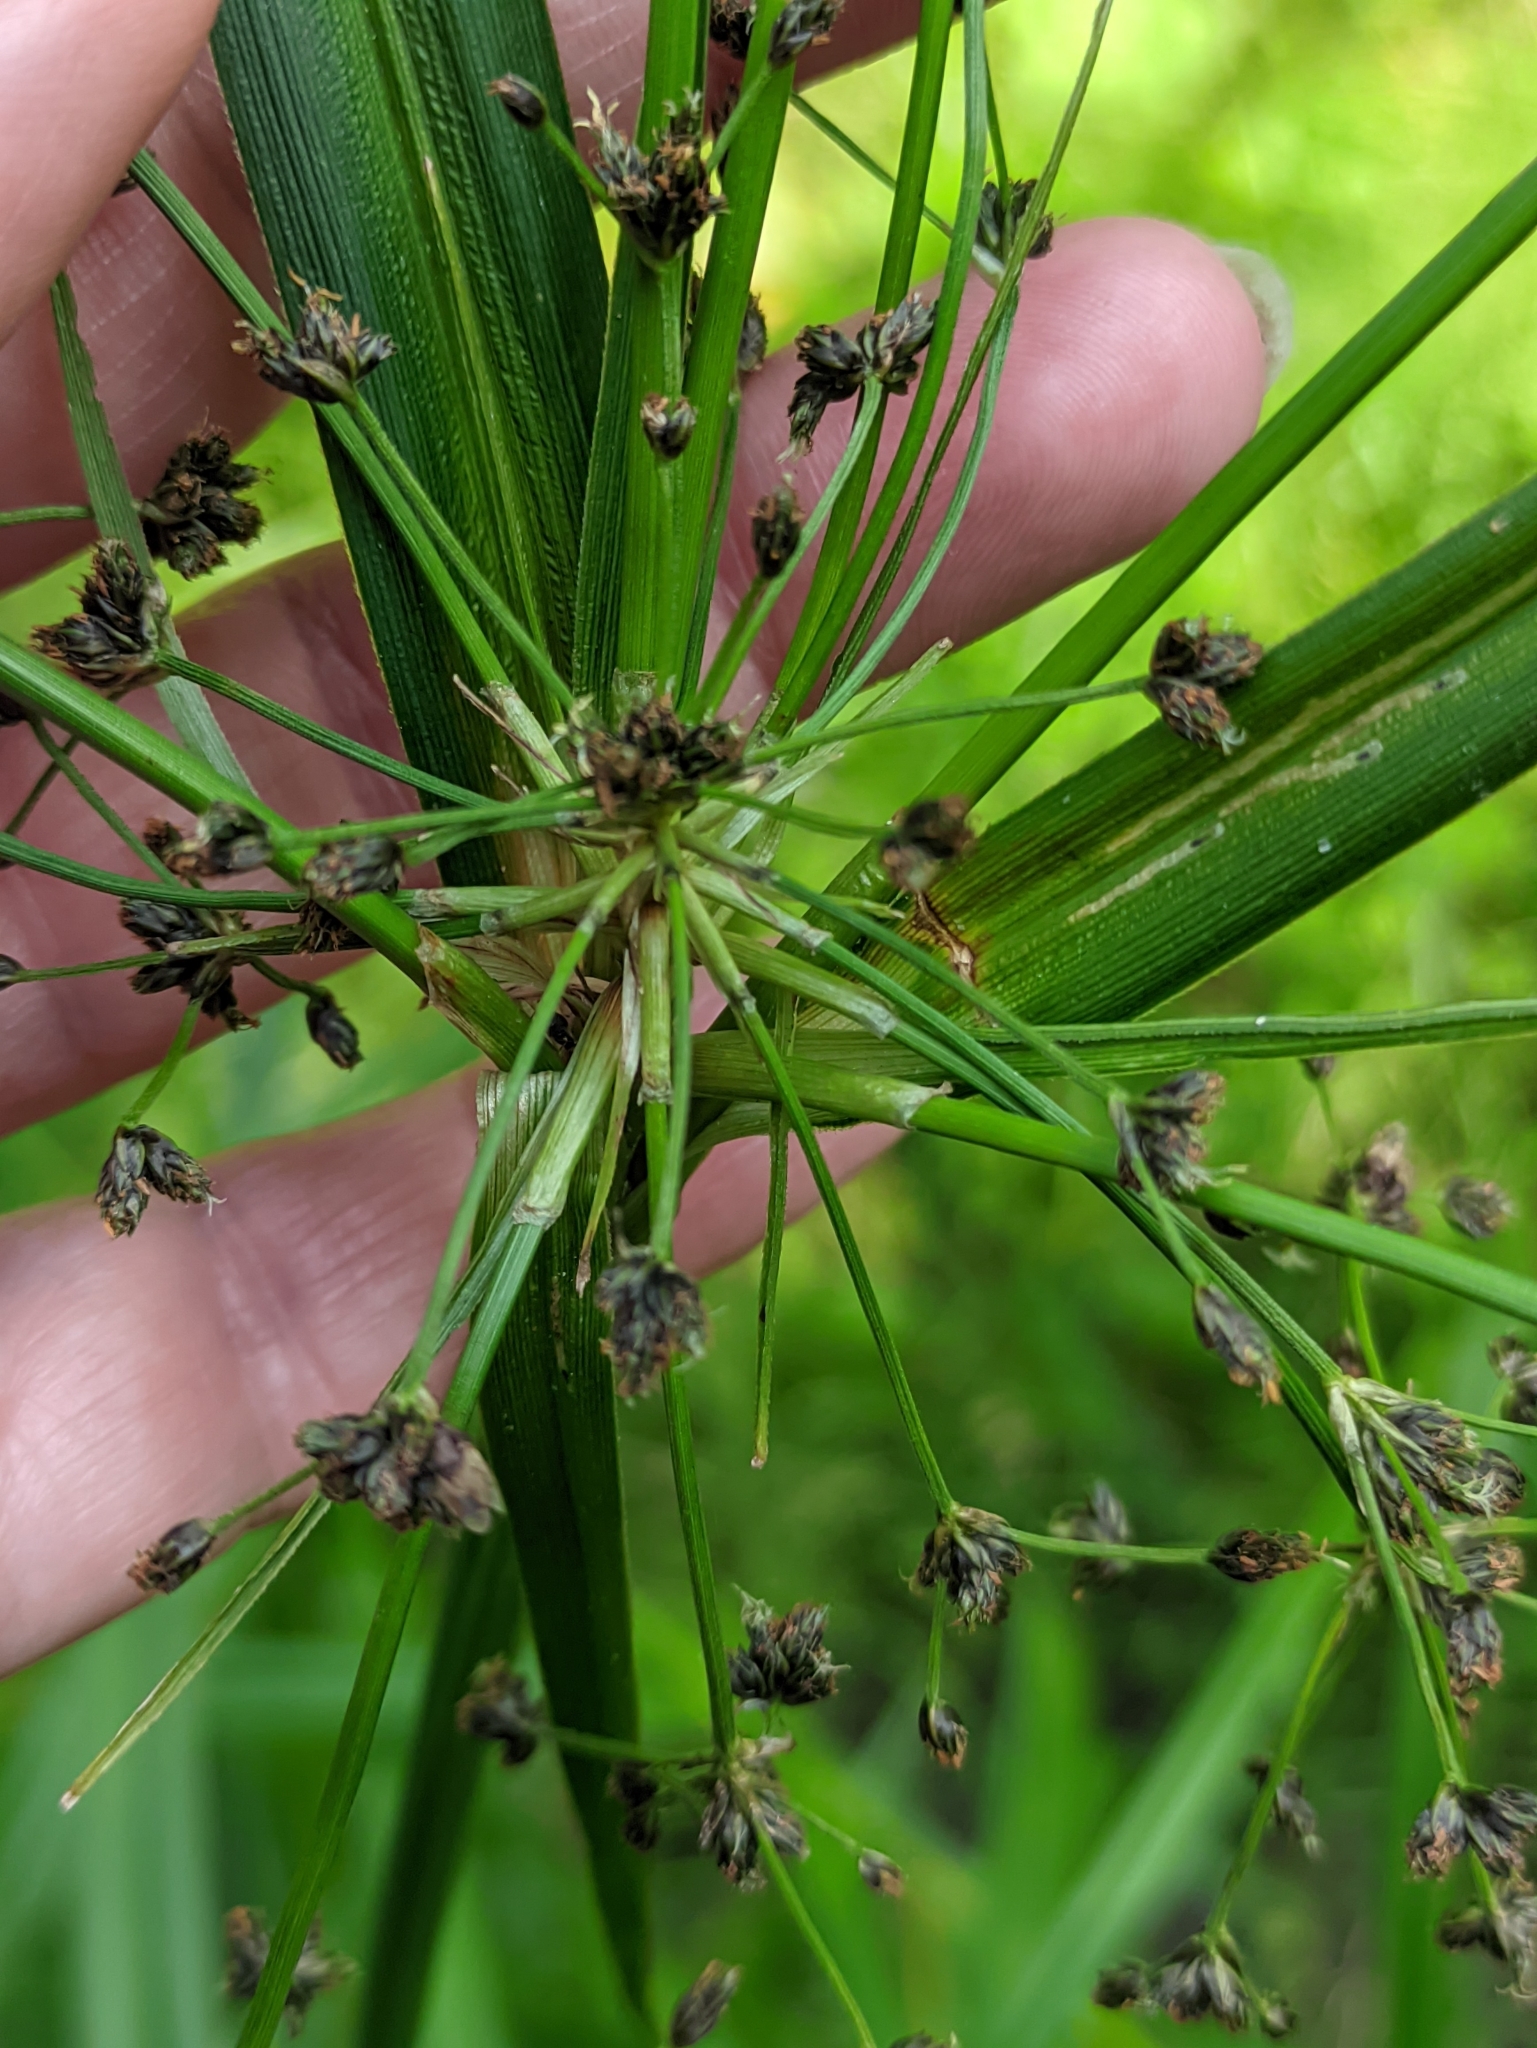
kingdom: Plantae
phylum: Tracheophyta
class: Liliopsida
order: Poales
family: Cyperaceae
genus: Scirpus
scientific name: Scirpus sylvaticus
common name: Wood club-rush
